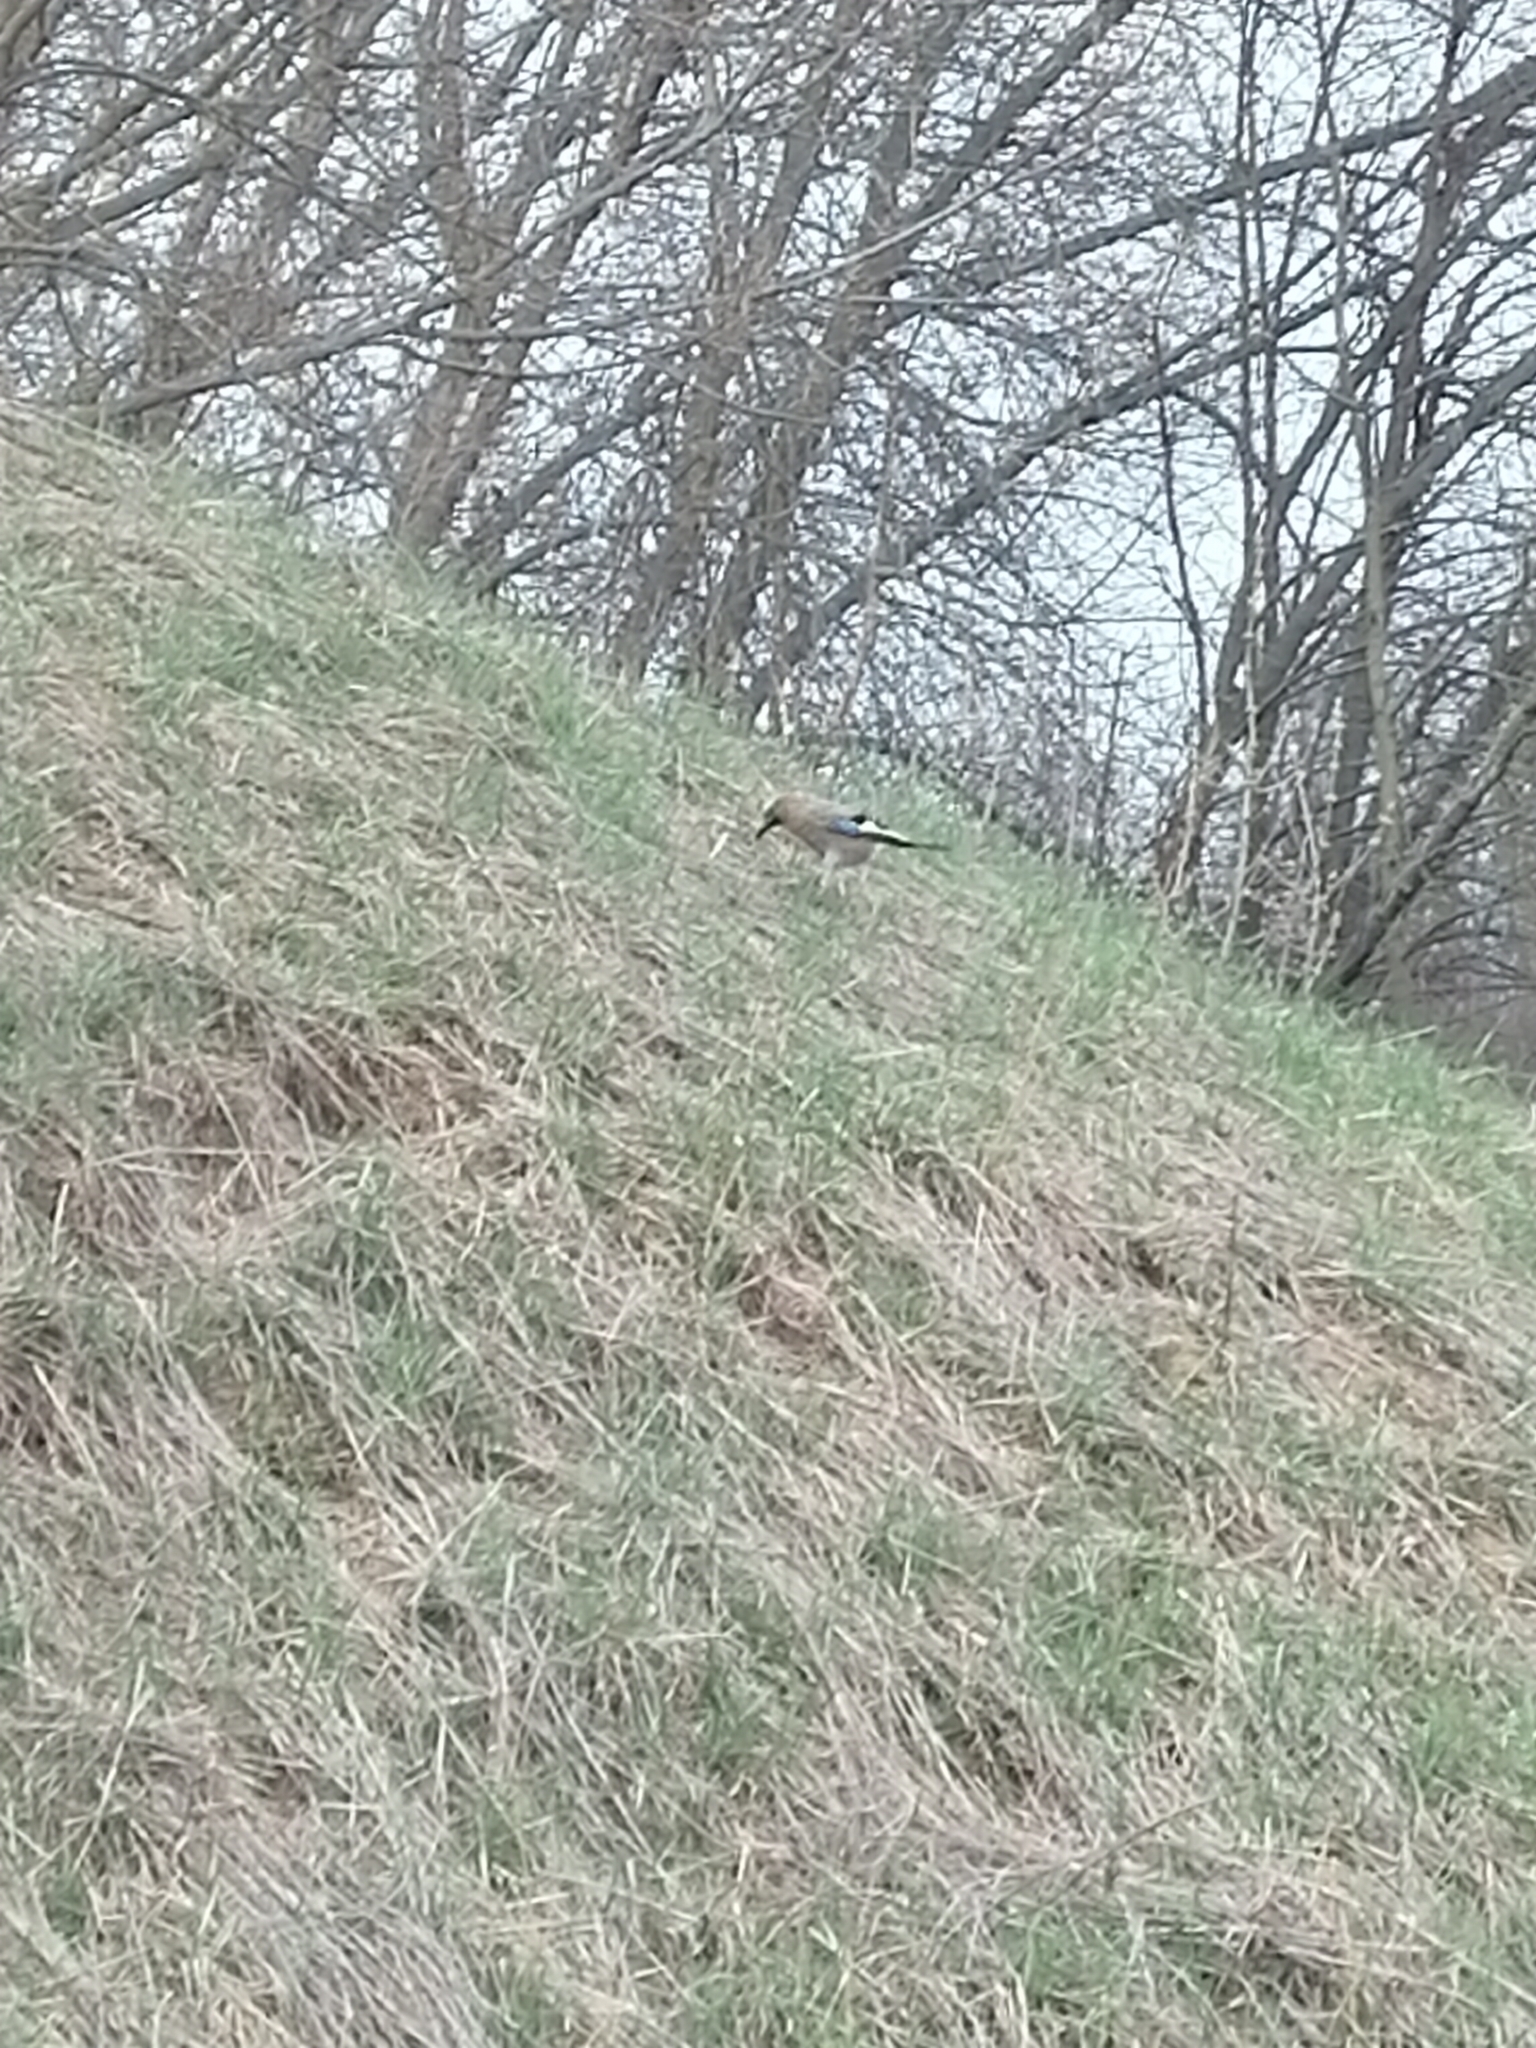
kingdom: Animalia
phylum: Chordata
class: Aves
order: Passeriformes
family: Corvidae
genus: Garrulus
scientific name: Garrulus glandarius
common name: Eurasian jay
